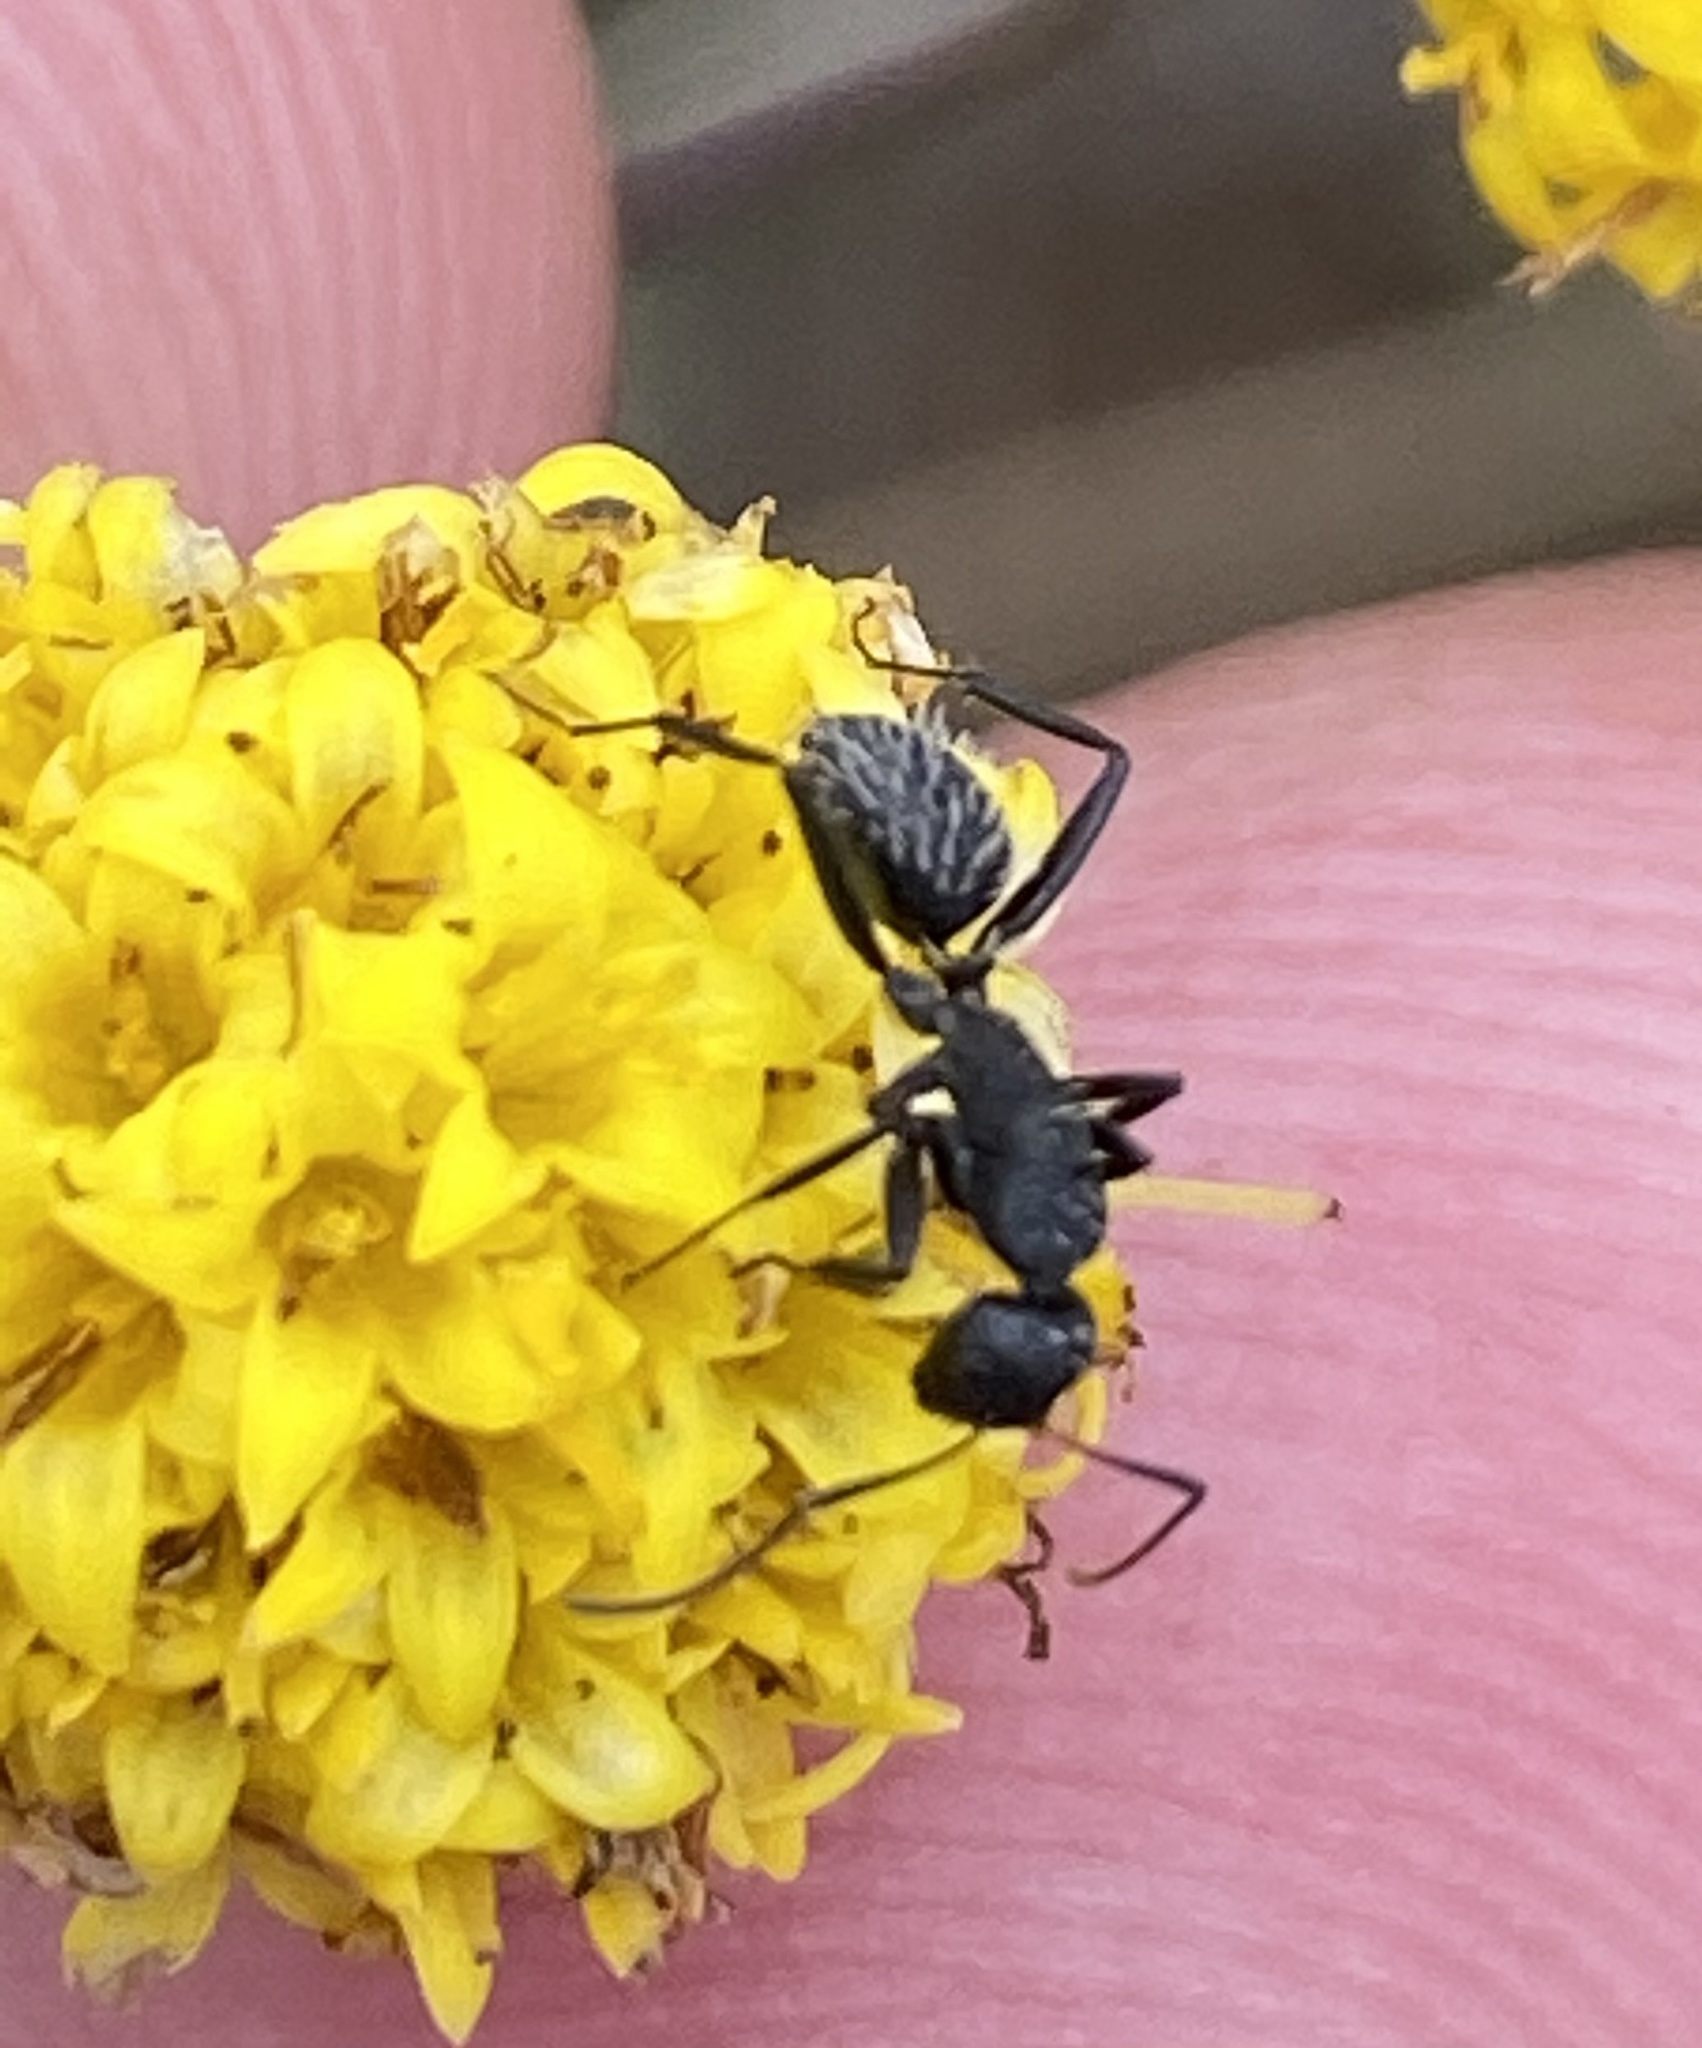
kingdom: Animalia
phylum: Arthropoda
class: Insecta
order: Hymenoptera
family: Formicidae
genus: Camponotus
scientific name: Camponotus niveosetosus
